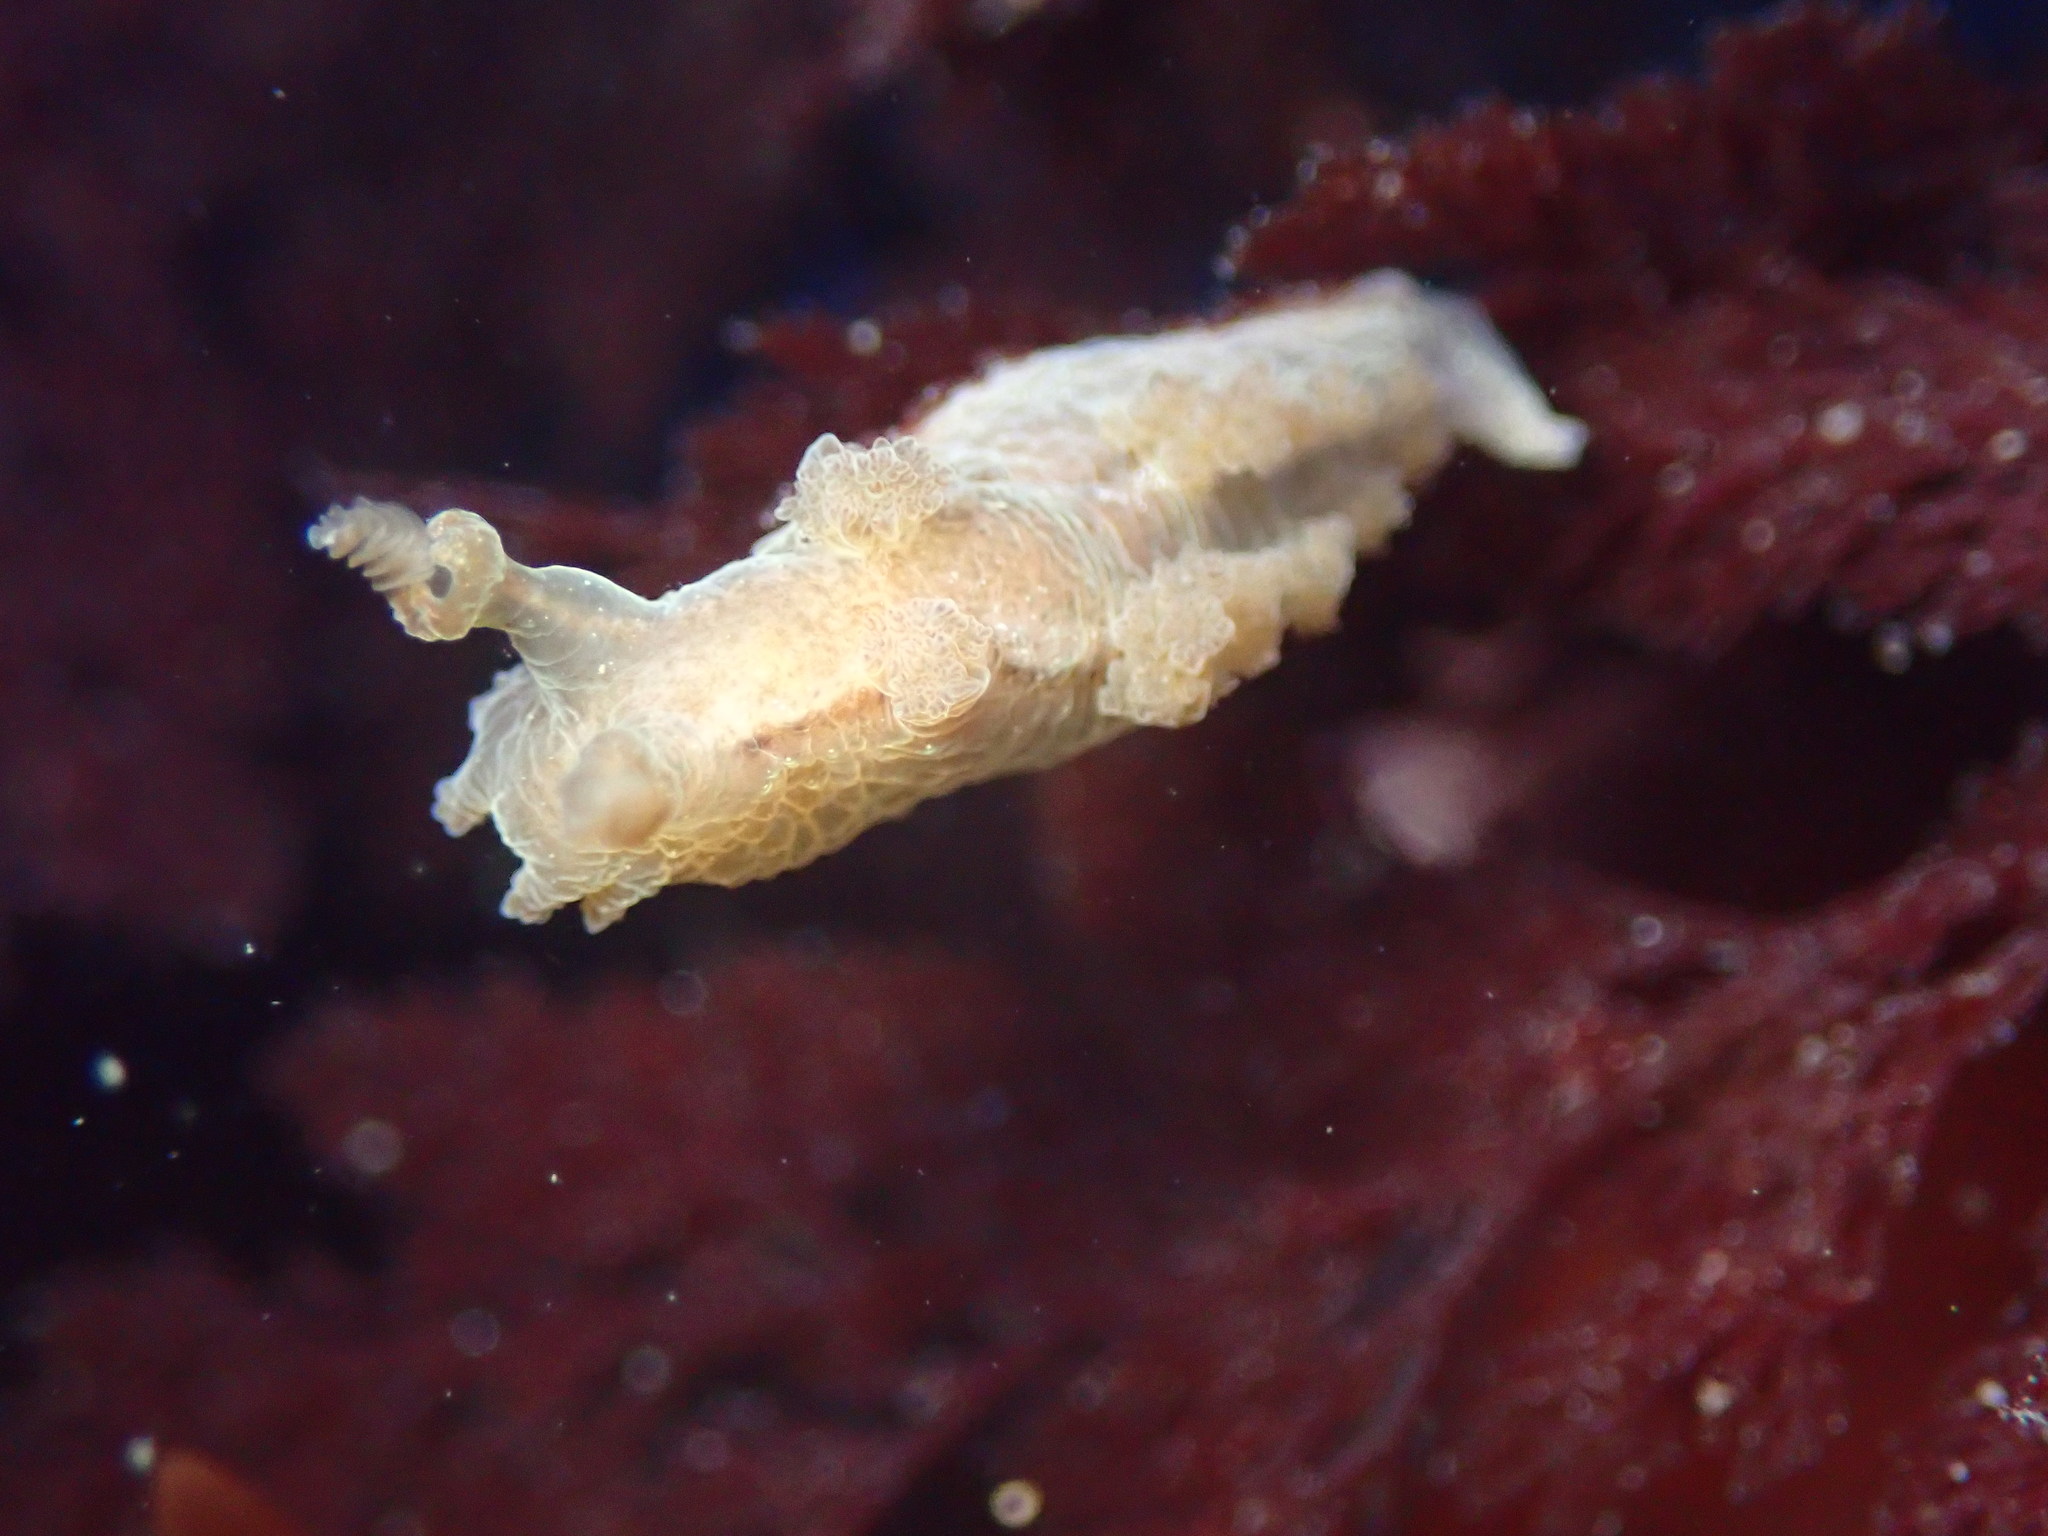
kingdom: Animalia
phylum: Mollusca
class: Gastropoda
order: Nudibranchia
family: Dendronotidae
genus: Dendronotus
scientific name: Dendronotus subramosus
